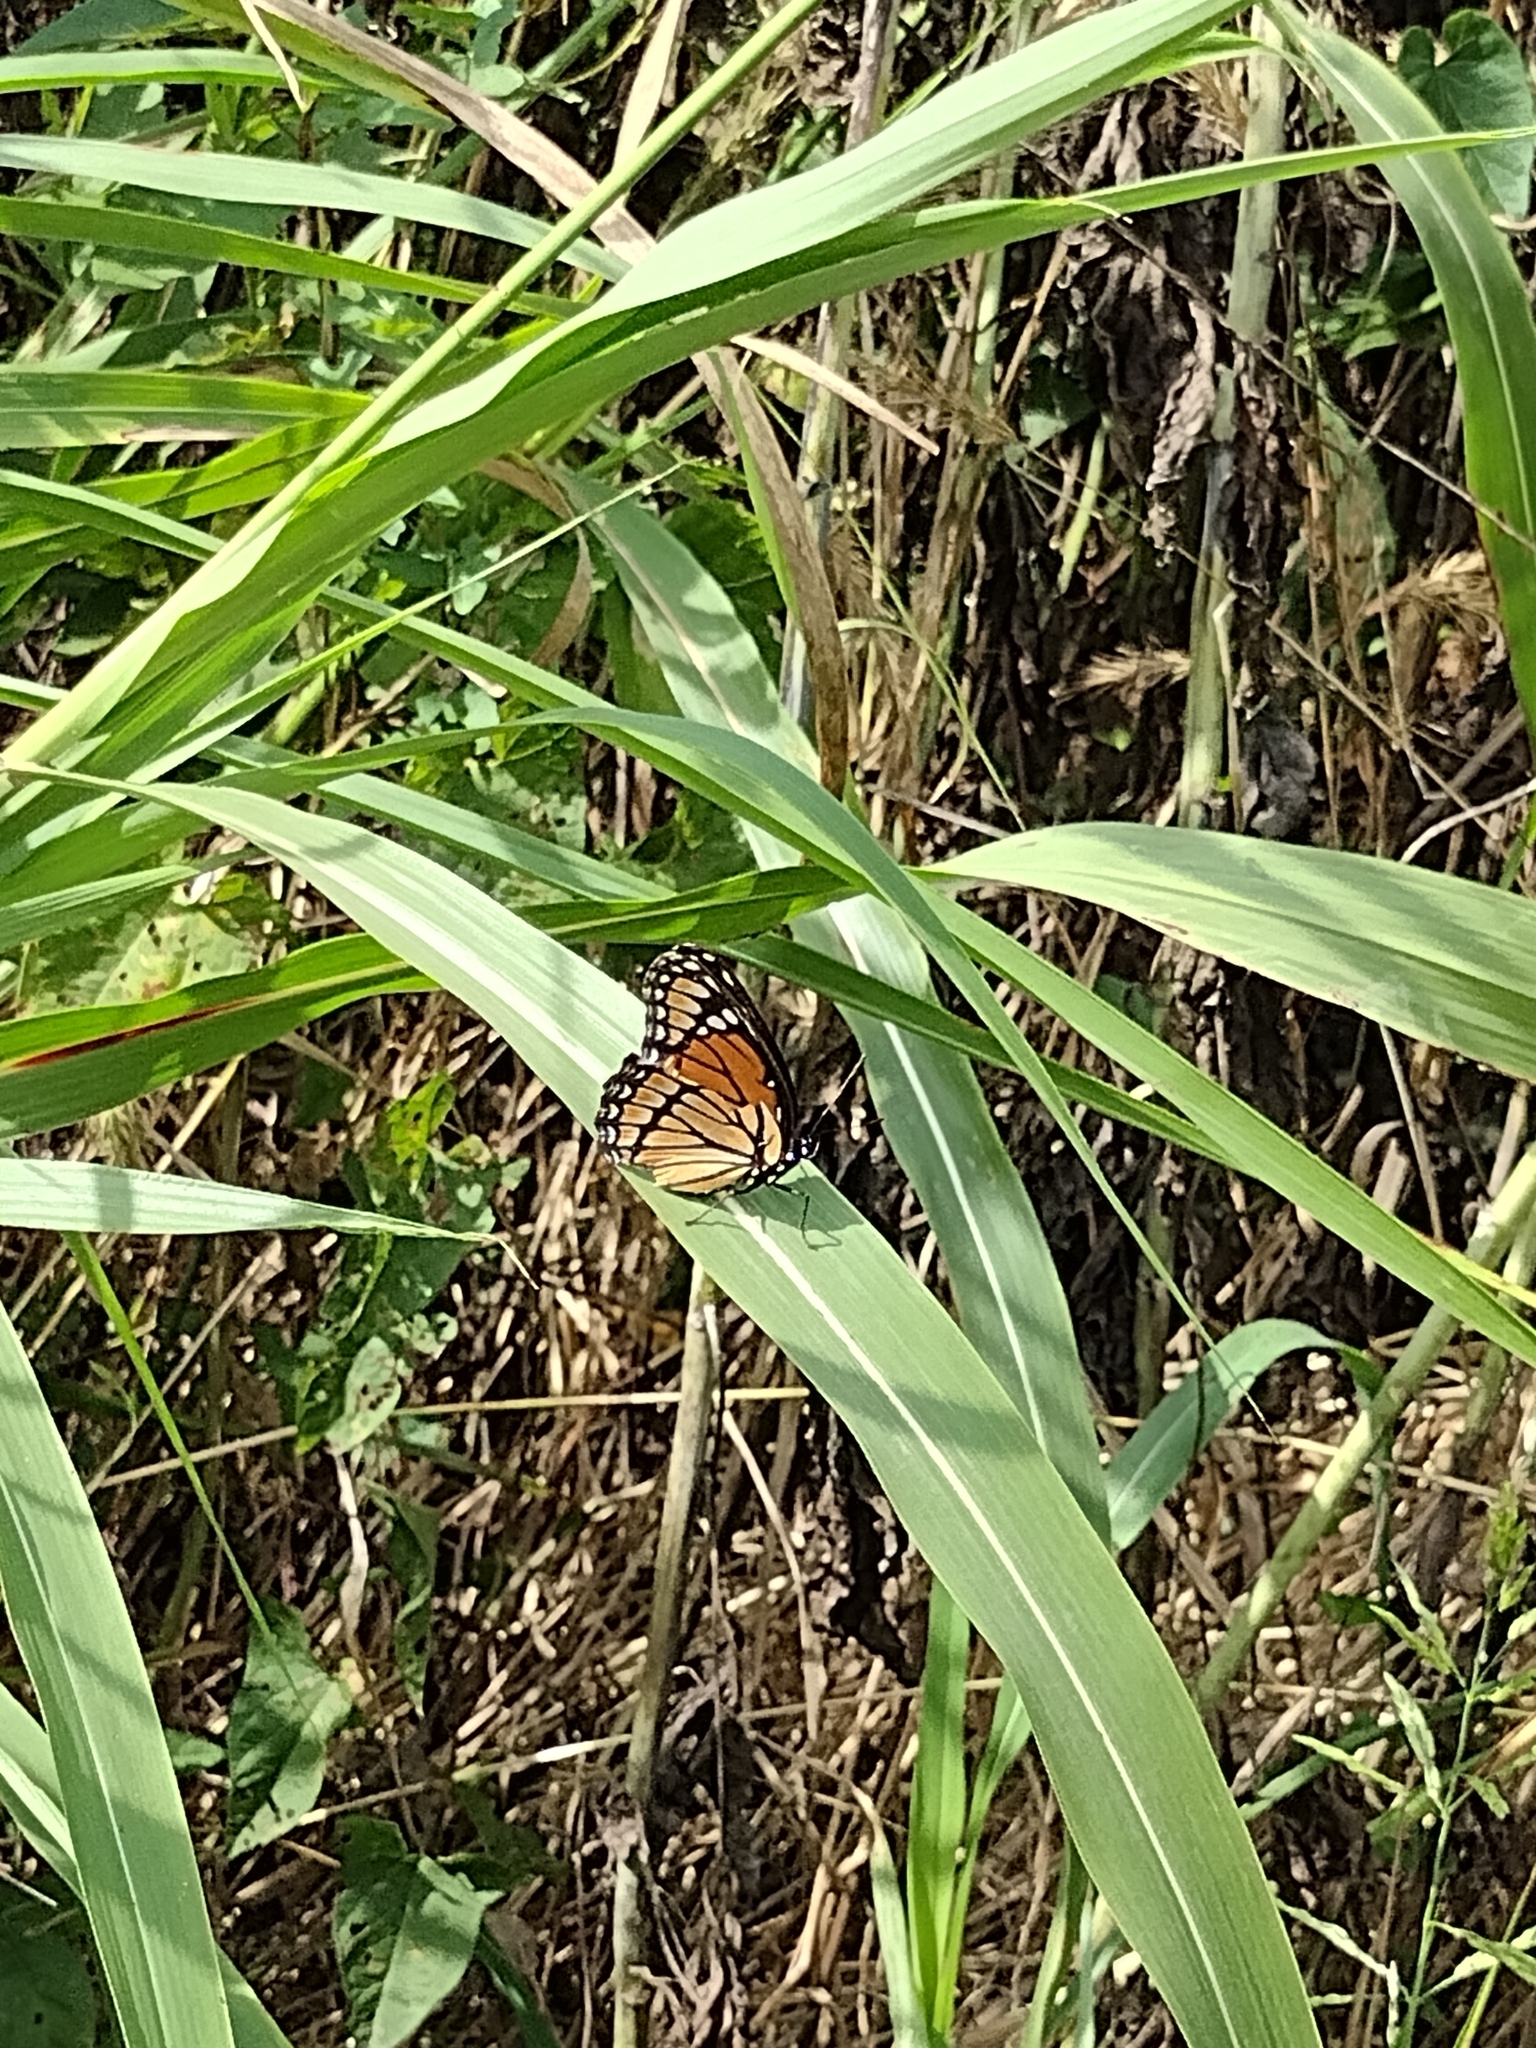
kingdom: Animalia
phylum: Arthropoda
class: Insecta
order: Lepidoptera
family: Nymphalidae
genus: Limenitis
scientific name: Limenitis archippus
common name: Viceroy
